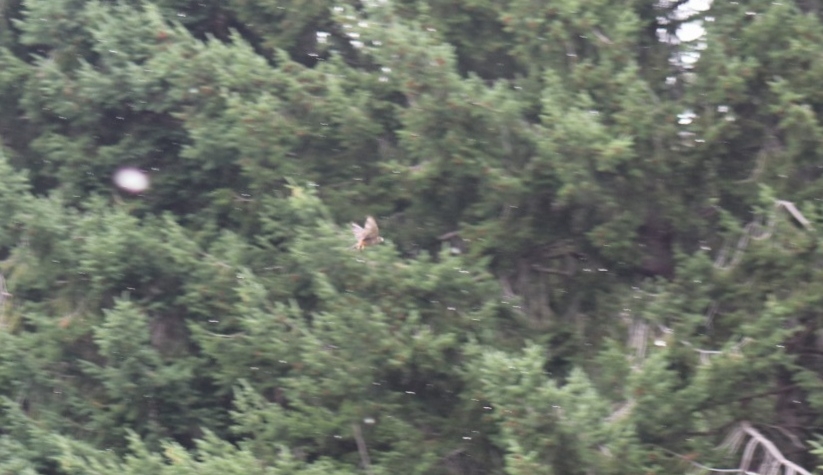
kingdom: Animalia
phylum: Chordata
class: Aves
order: Falconiformes
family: Falconidae
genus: Falco
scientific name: Falco novaeseelandiae
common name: New zealand falcon
